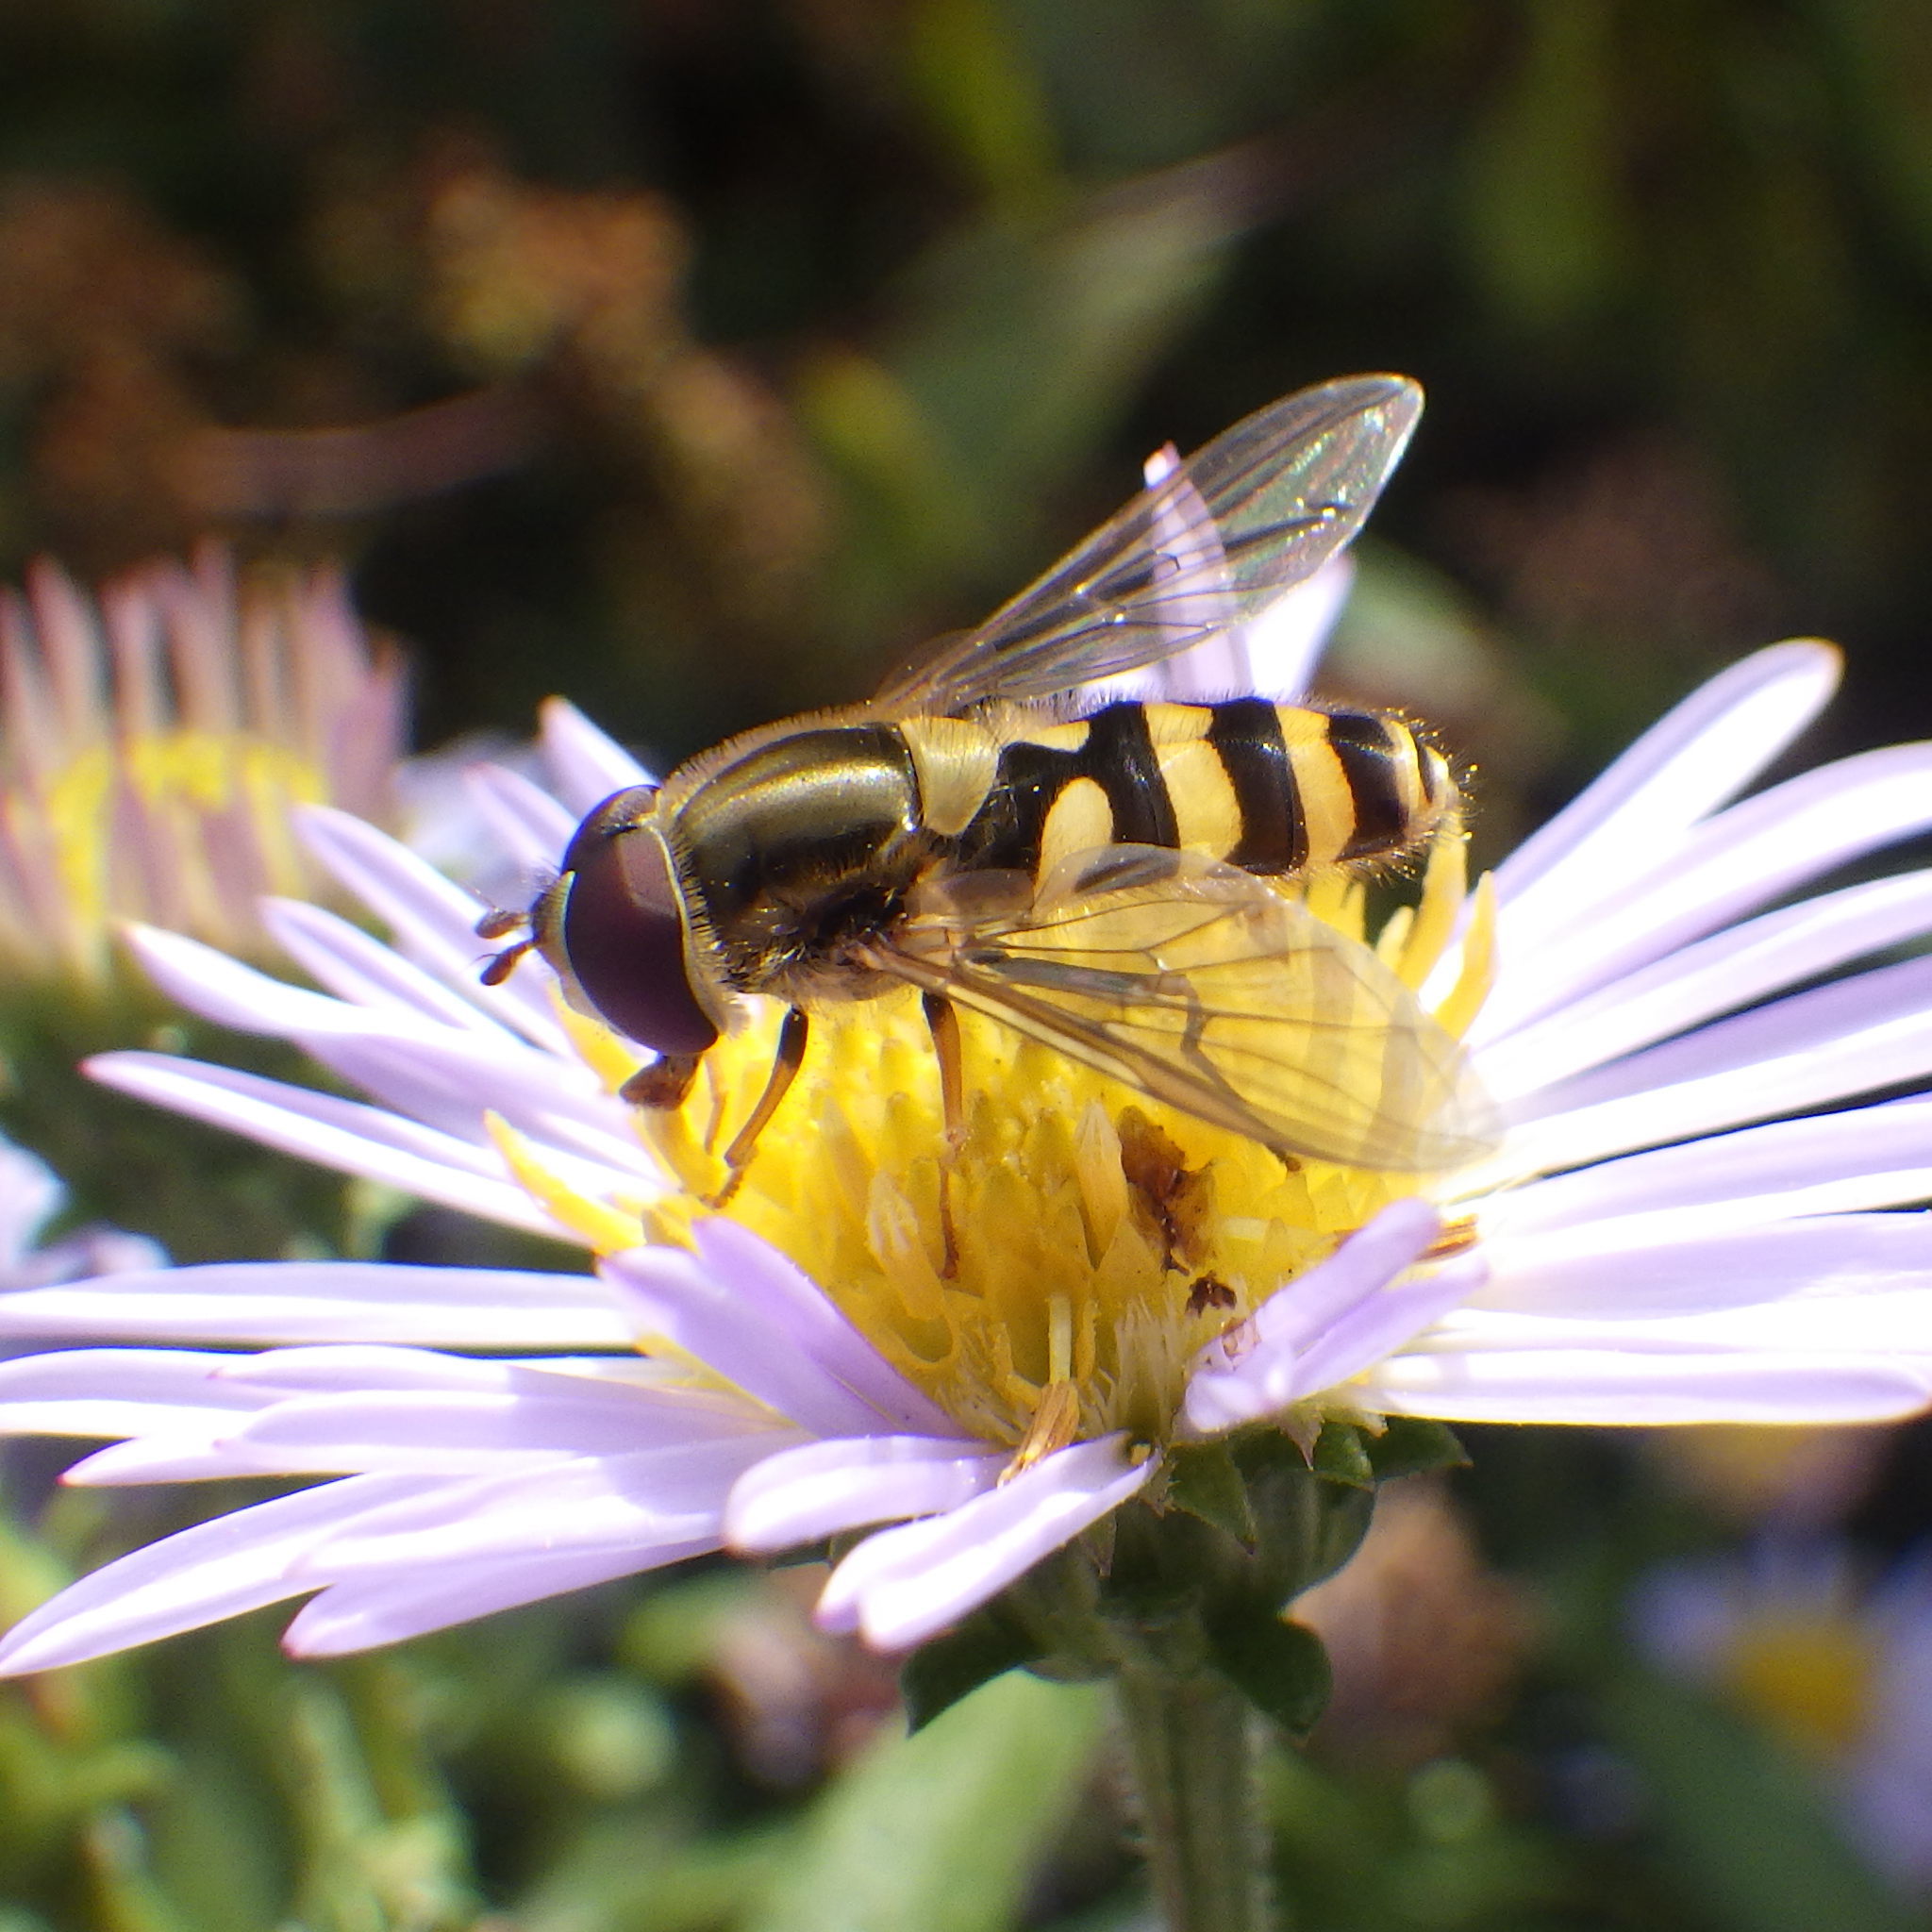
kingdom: Animalia
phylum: Arthropoda
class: Insecta
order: Diptera
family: Syrphidae
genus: Syrphus
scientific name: Syrphus
